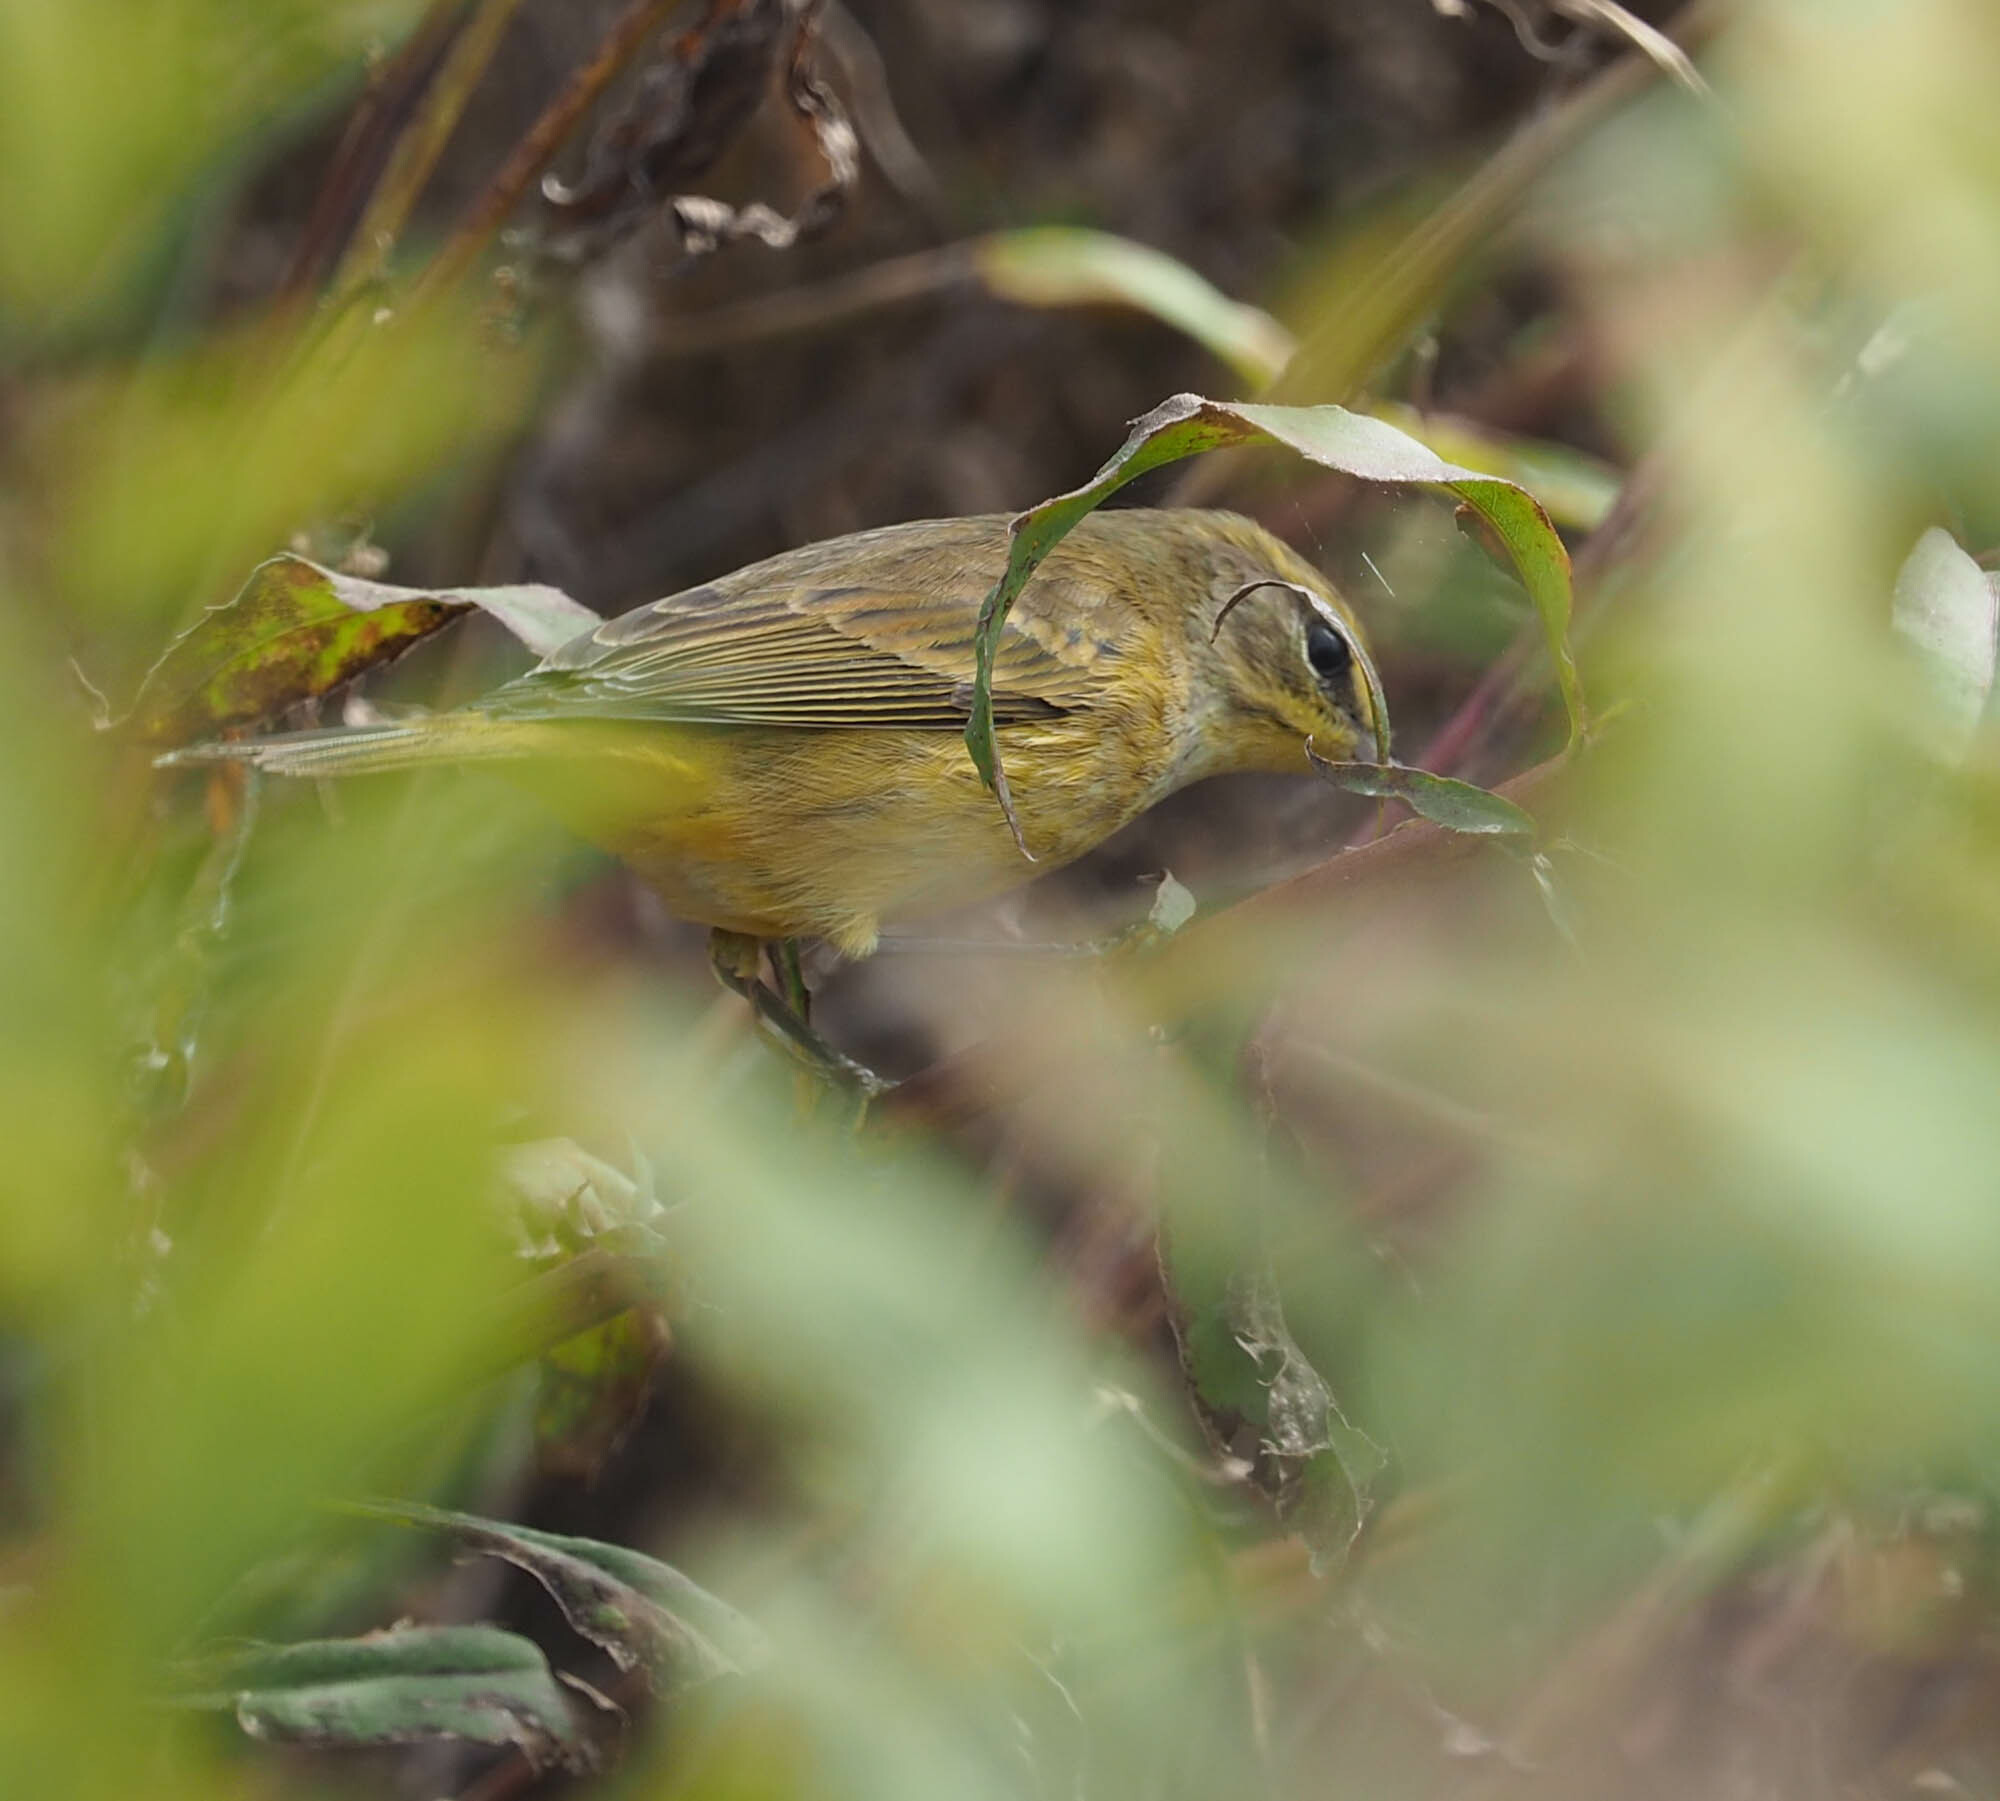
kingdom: Animalia
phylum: Chordata
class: Aves
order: Passeriformes
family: Parulidae
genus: Setophaga
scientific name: Setophaga palmarum
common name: Palm warbler
